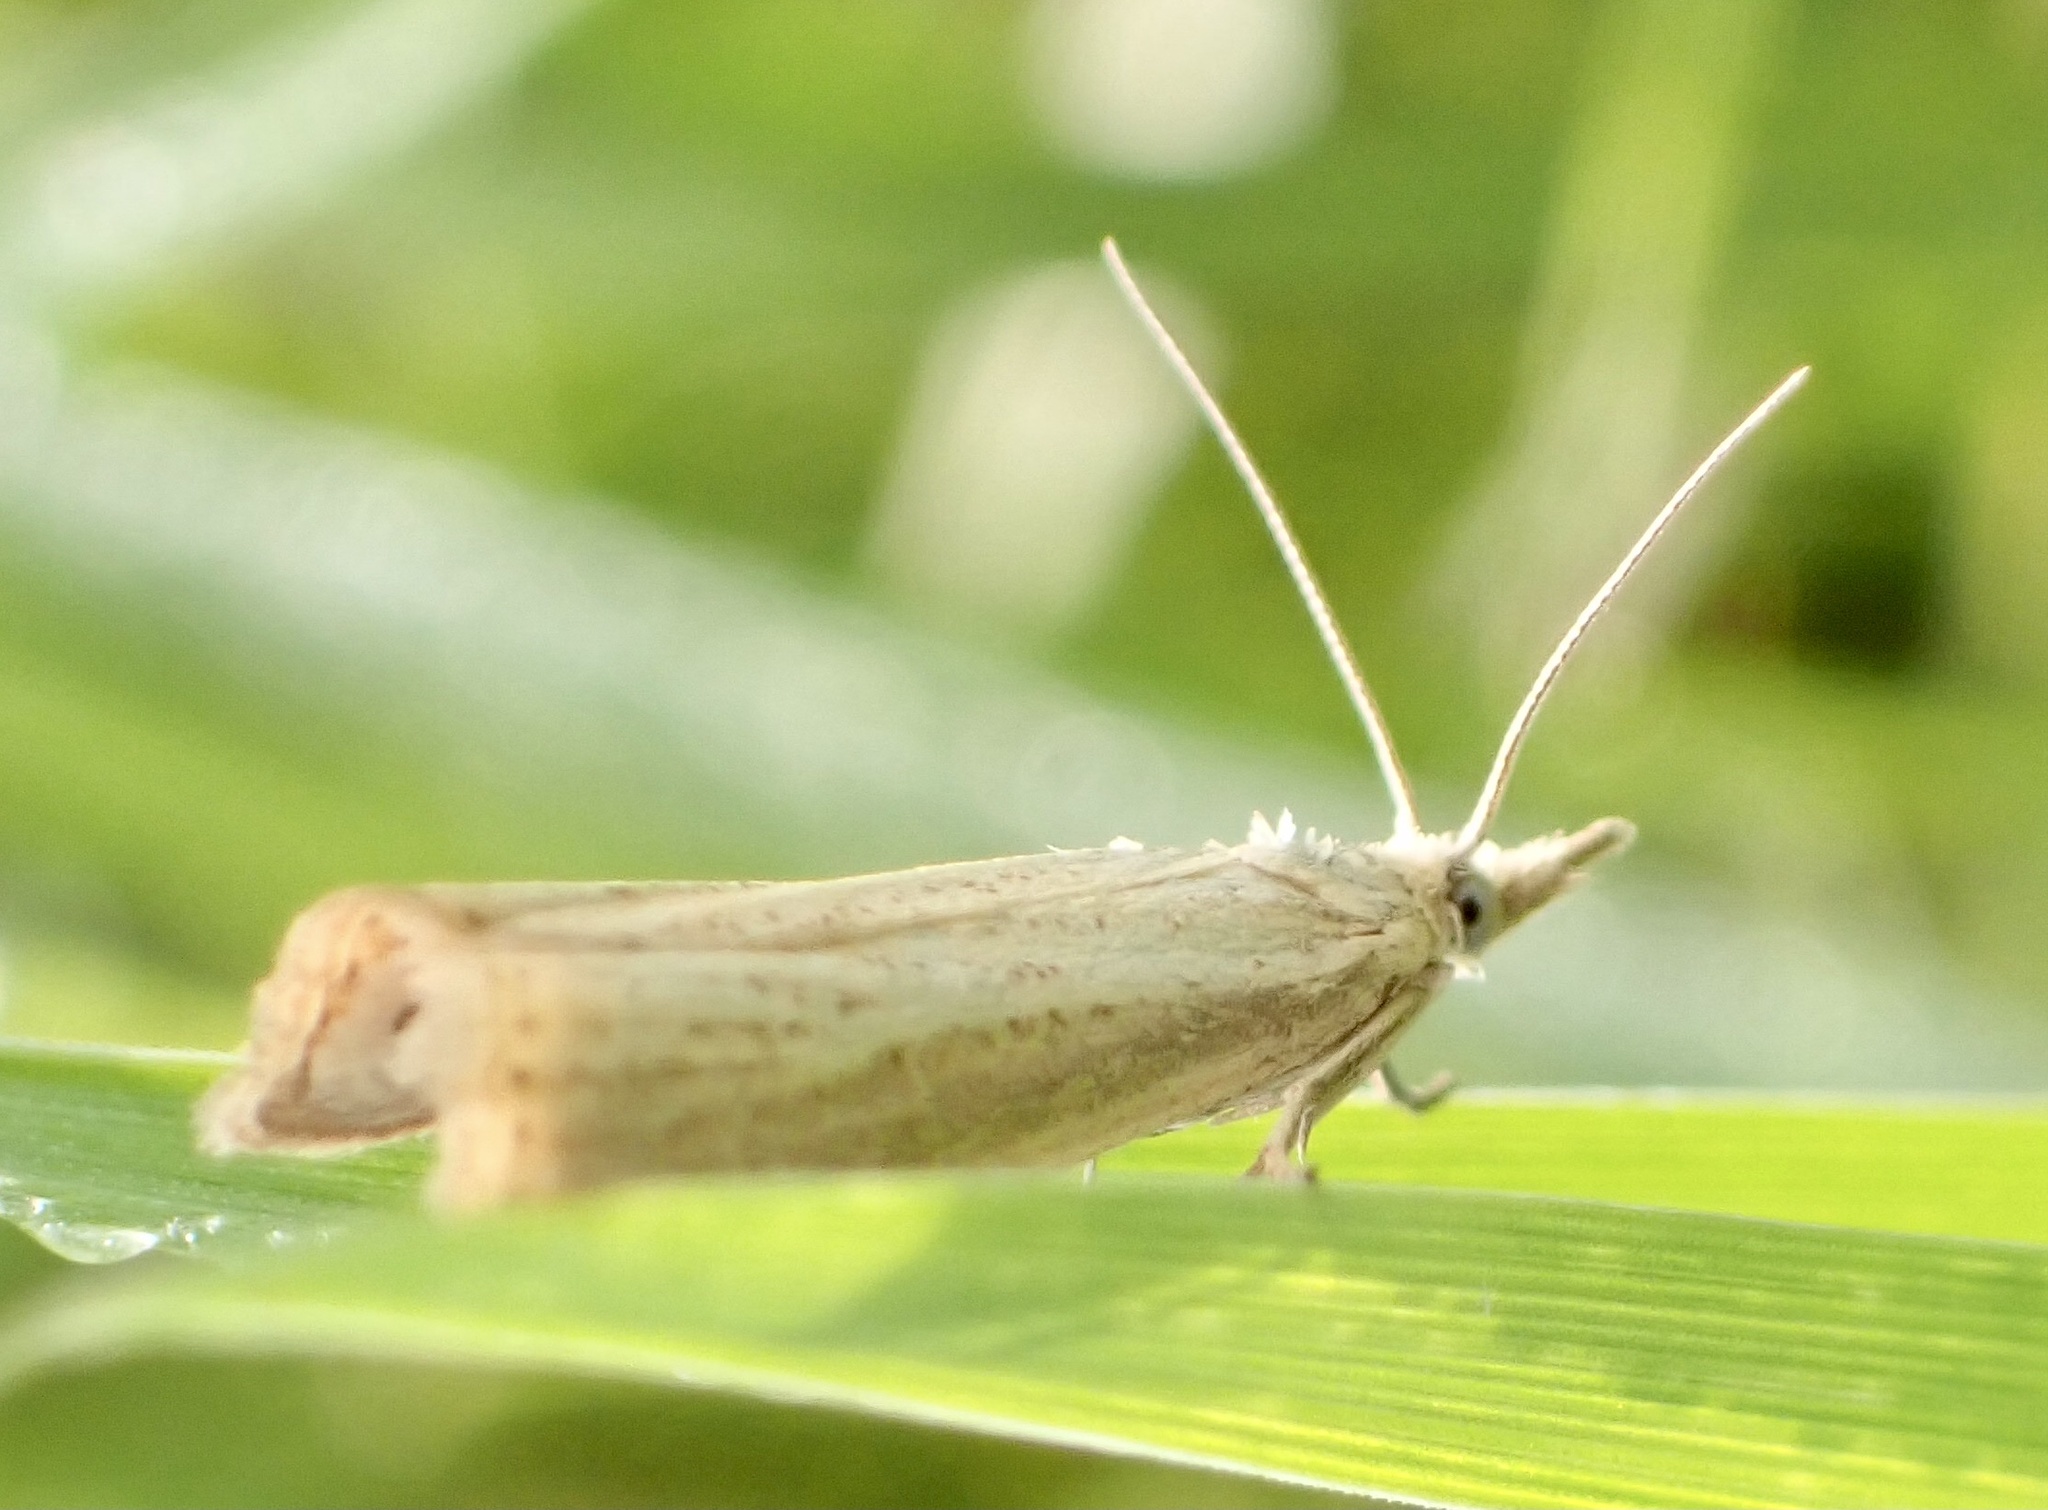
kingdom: Animalia
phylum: Arthropoda
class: Insecta
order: Lepidoptera
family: Crambidae
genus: Agriphila
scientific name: Agriphila straminella
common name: Straw grass-veneer
